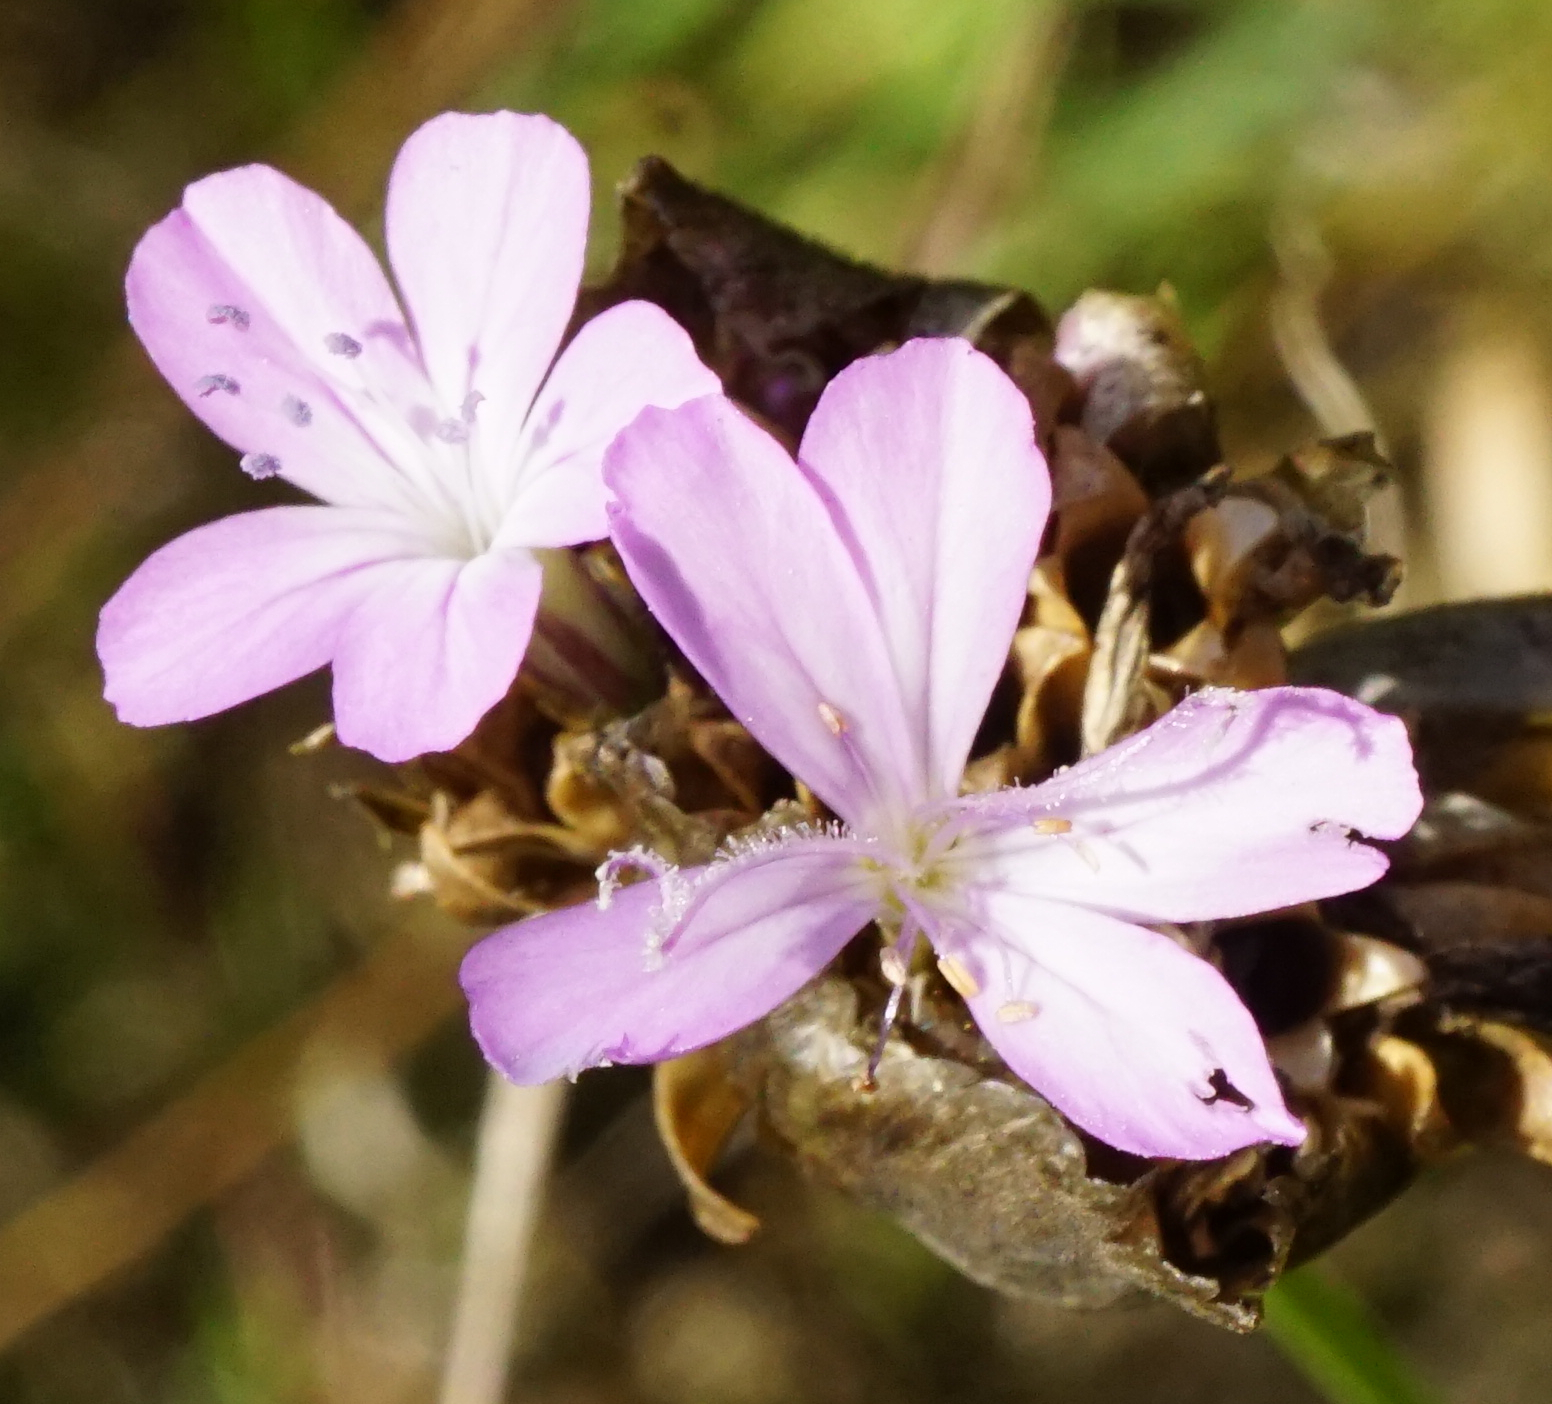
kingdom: Plantae
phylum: Tracheophyta
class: Magnoliopsida
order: Caryophyllales
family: Caryophyllaceae
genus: Petrorhagia
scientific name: Petrorhagia prolifera
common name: Proliferous pink
